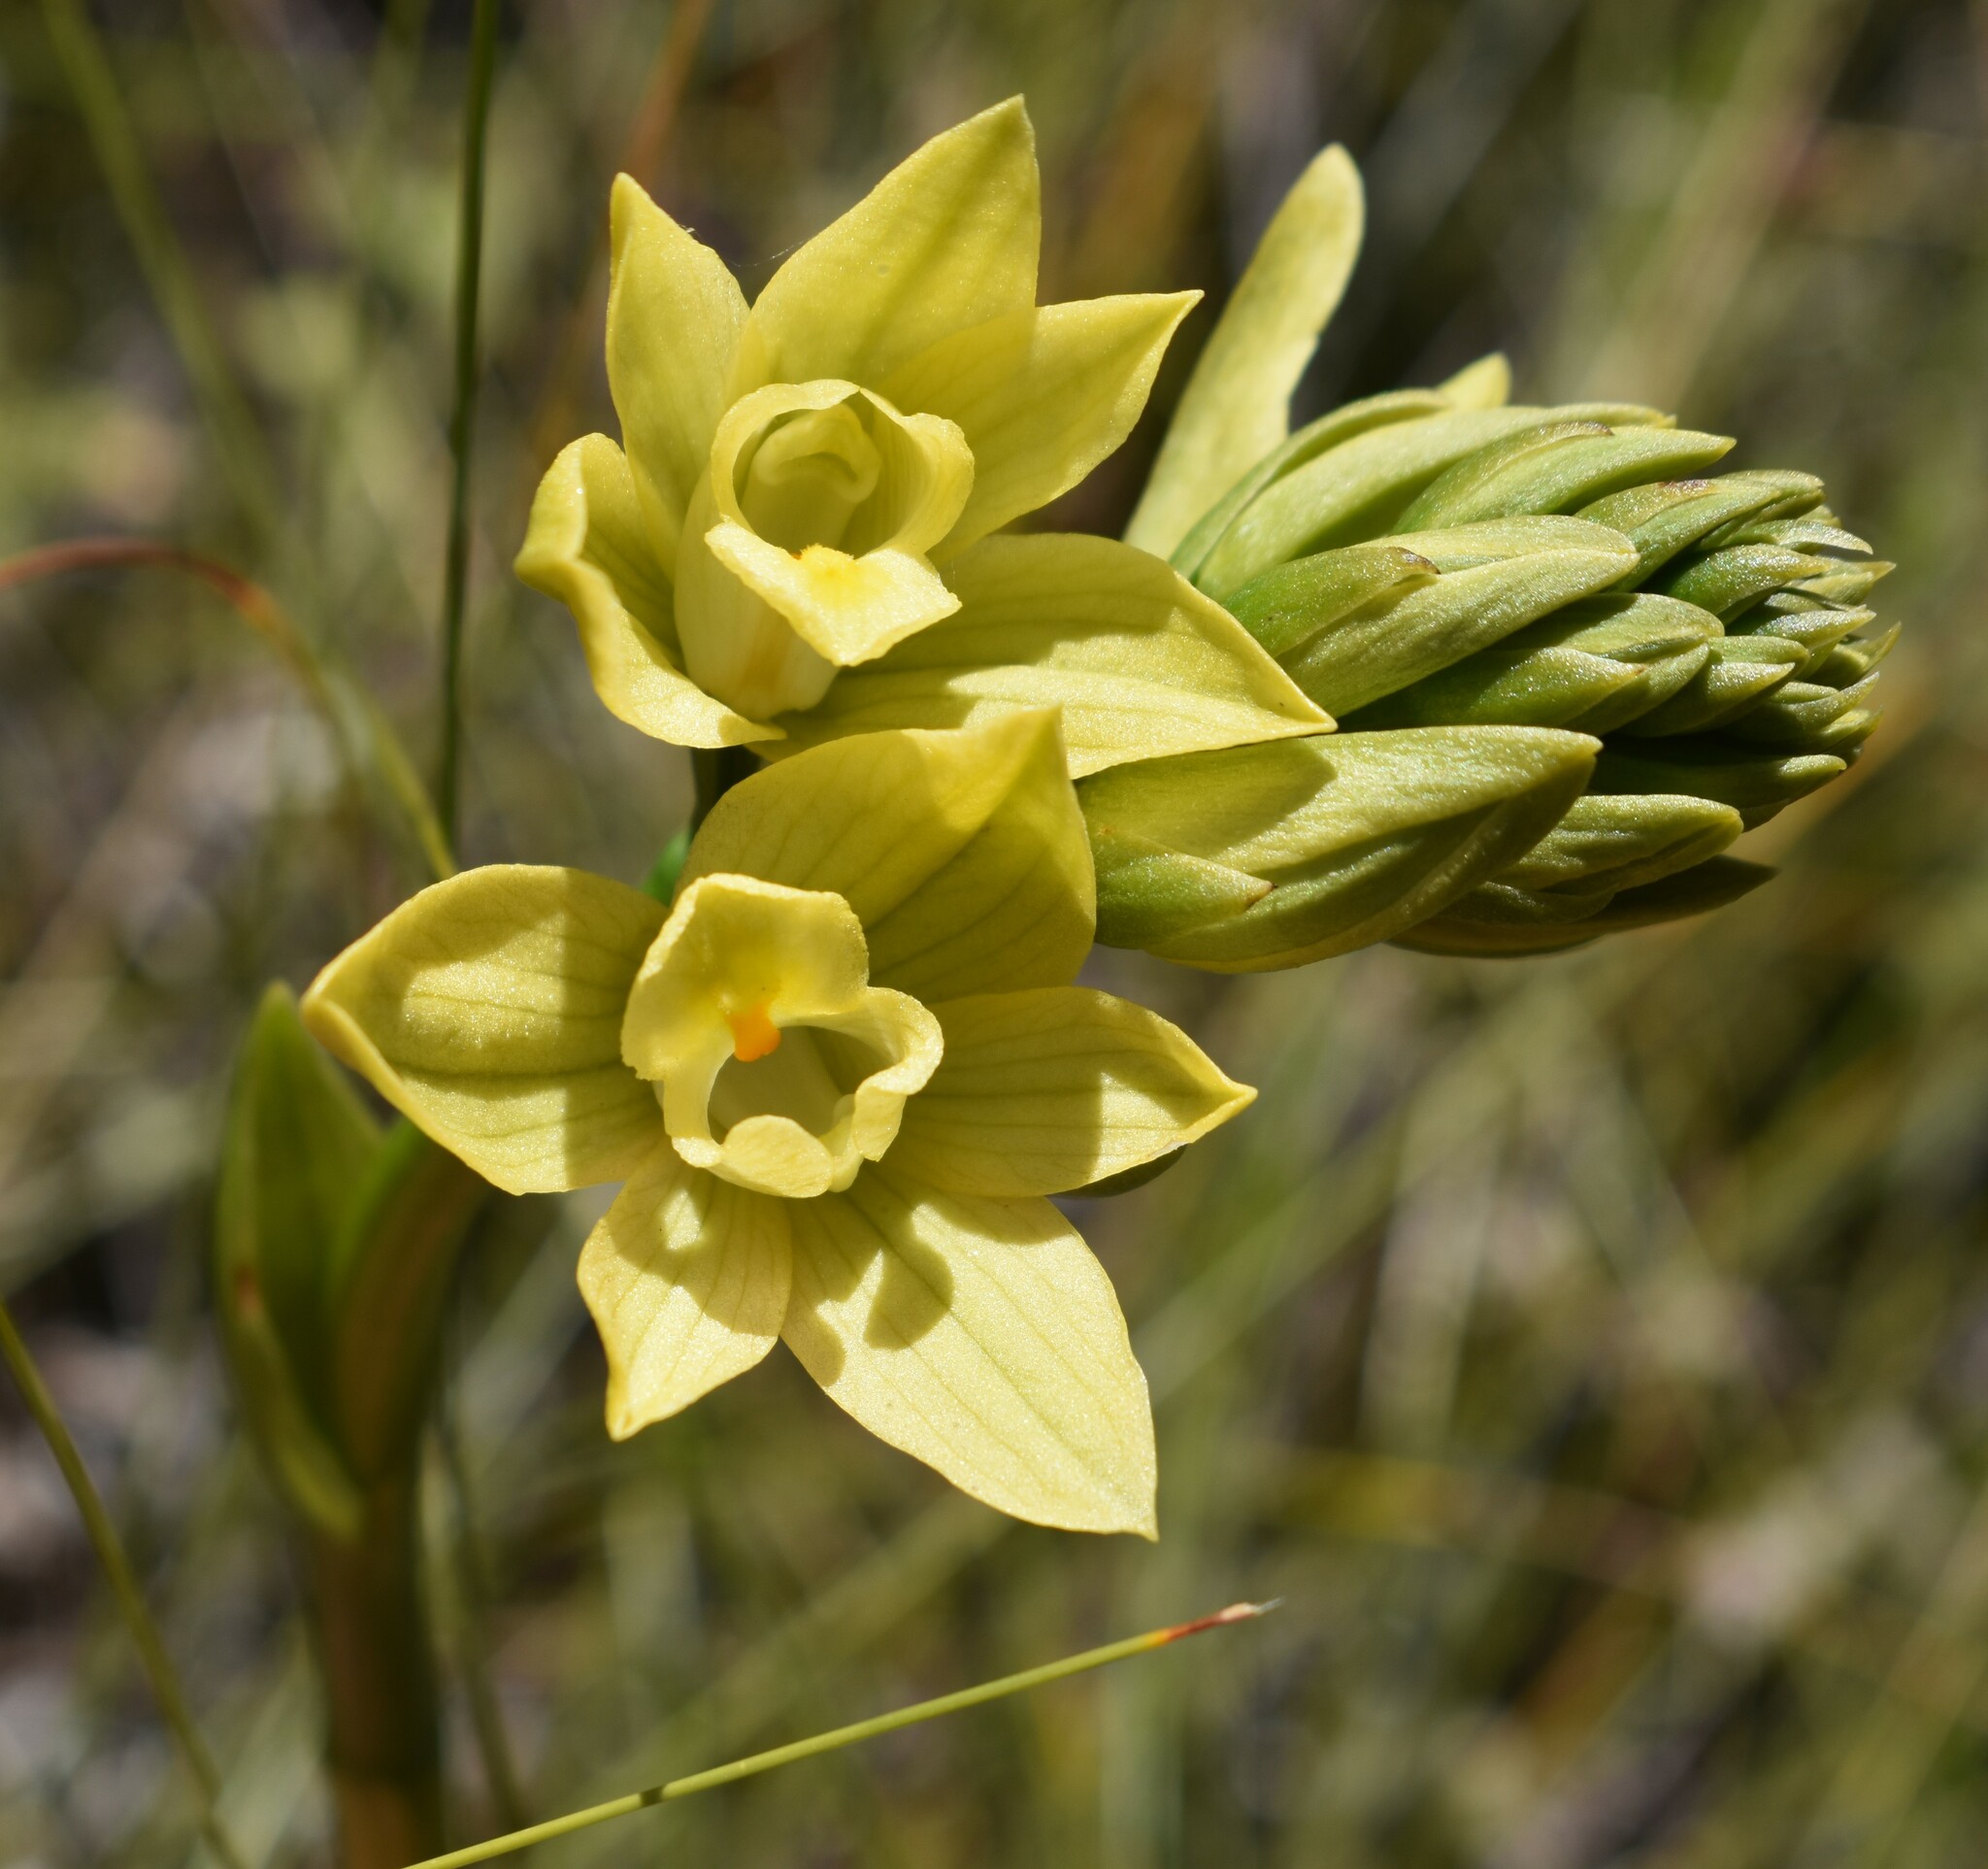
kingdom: Plantae
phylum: Tracheophyta
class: Liliopsida
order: Asparagales
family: Orchidaceae
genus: Eulophia
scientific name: Eulophia tabularis
